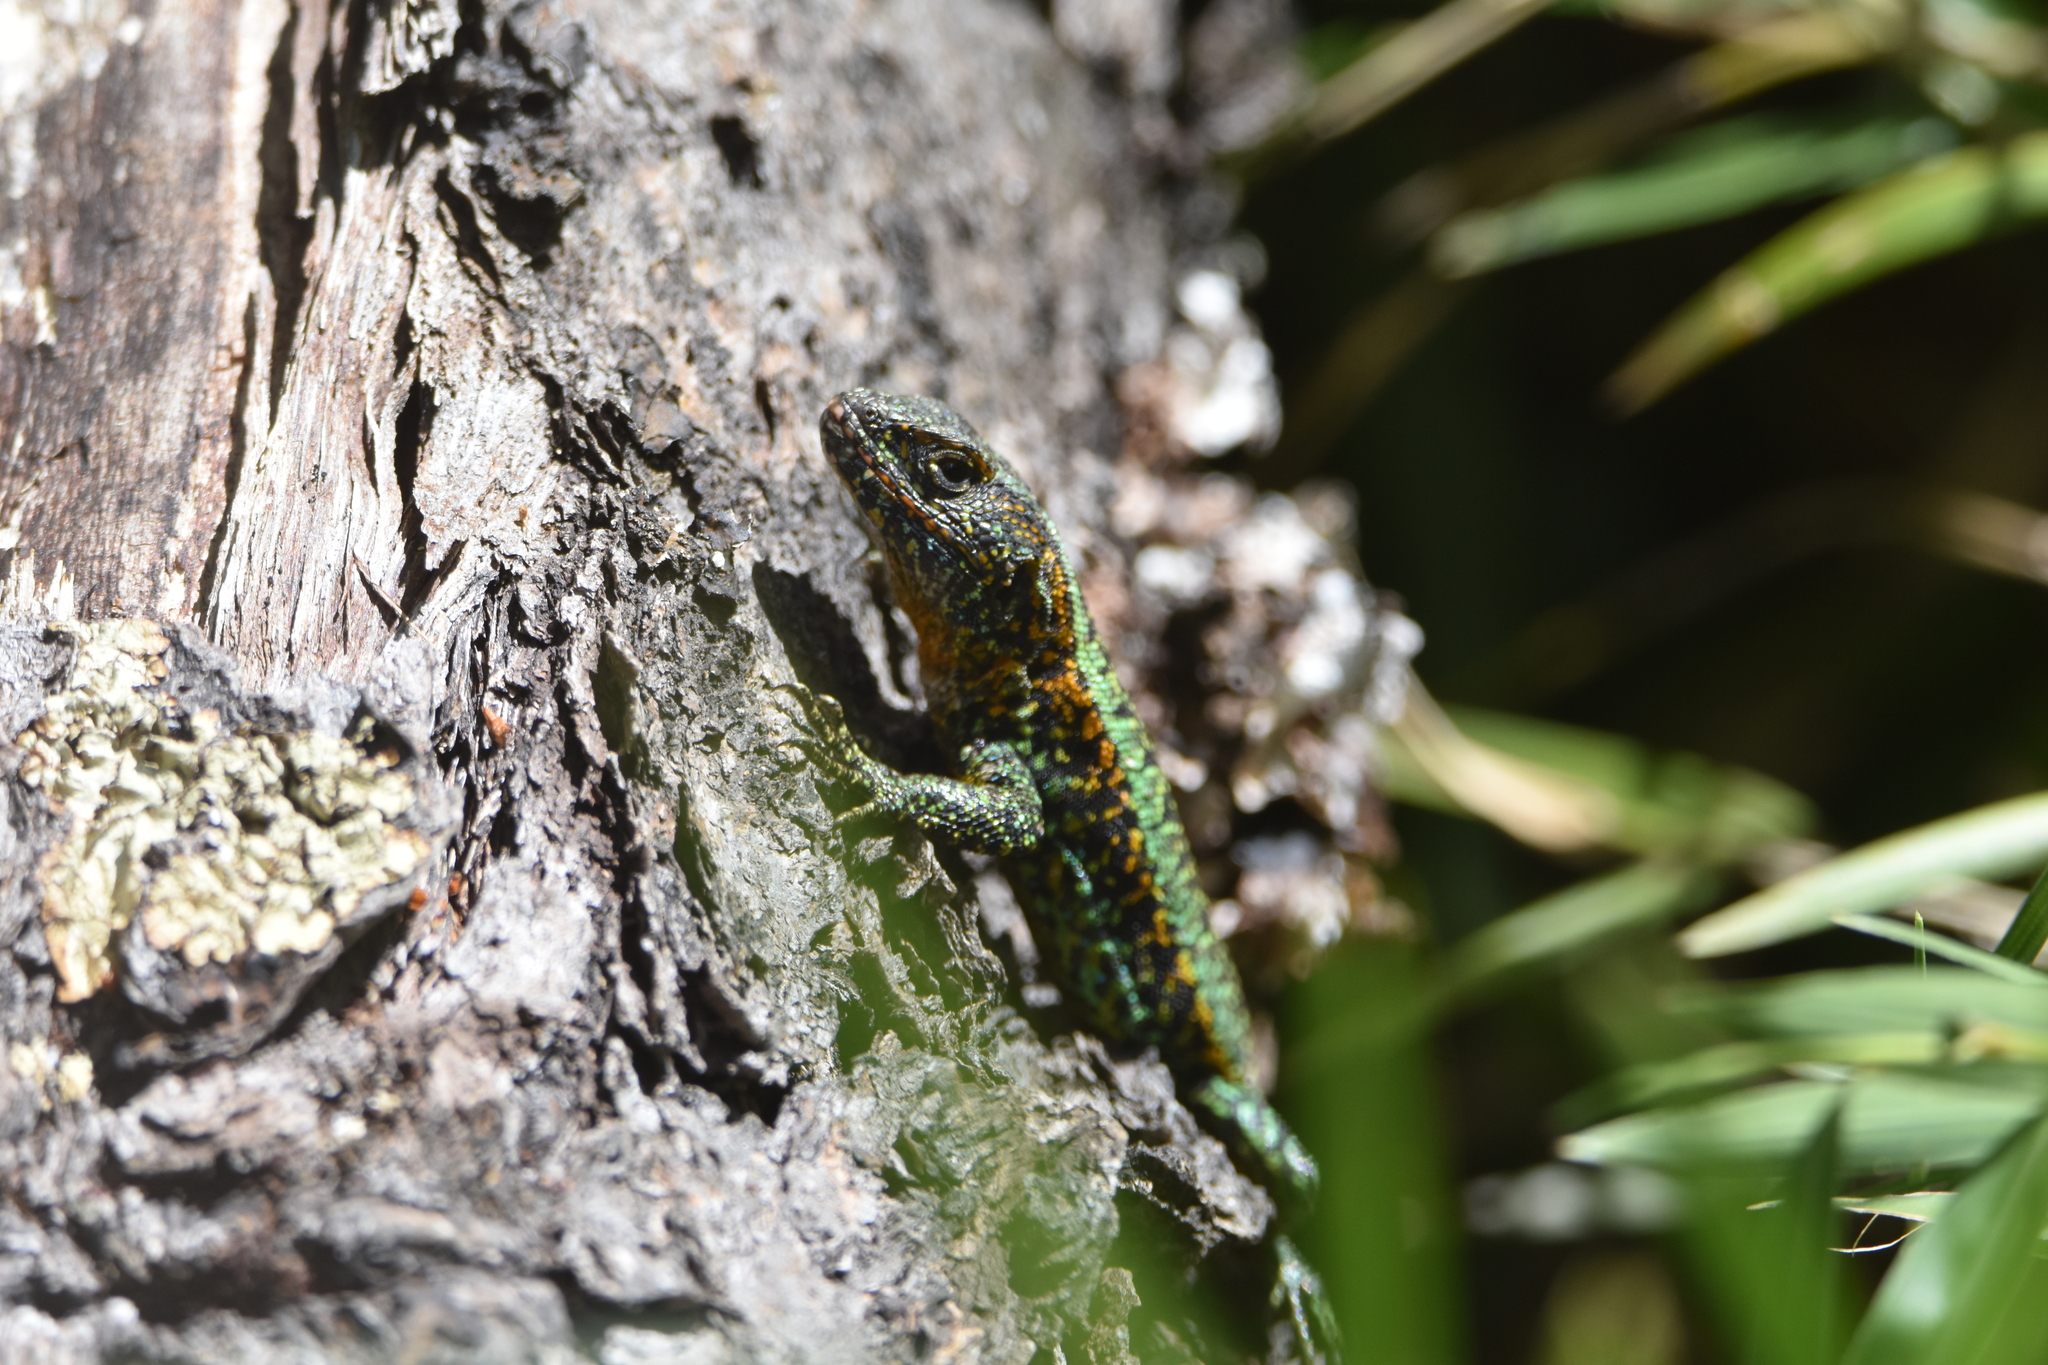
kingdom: Animalia
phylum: Chordata
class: Squamata
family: Liolaemidae
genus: Liolaemus
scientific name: Liolaemus pictus
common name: Painted tree iguana
